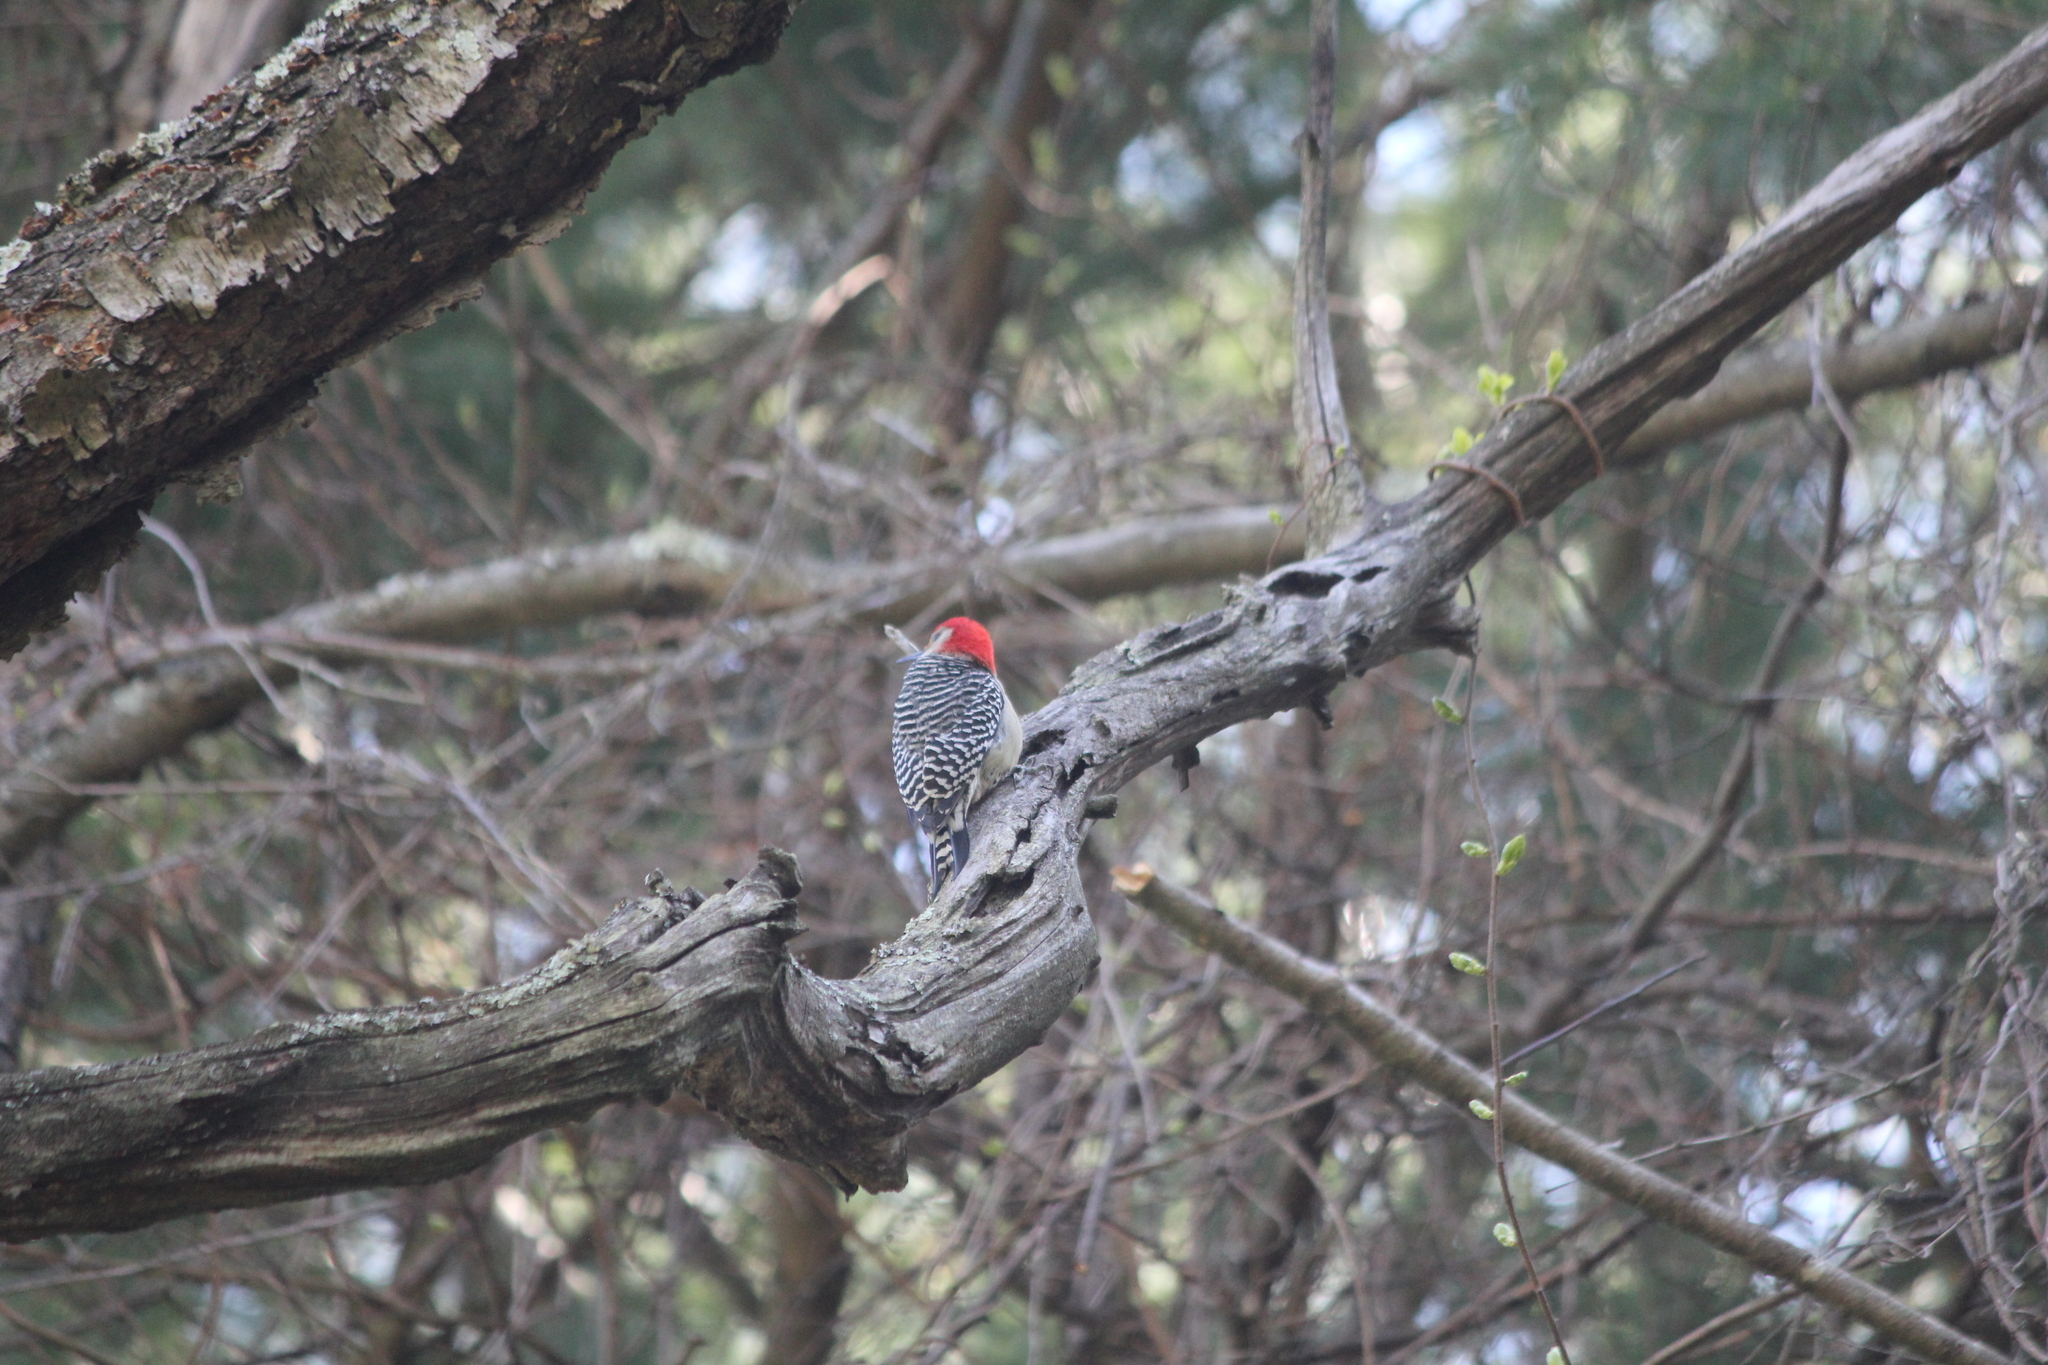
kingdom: Animalia
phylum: Chordata
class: Aves
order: Piciformes
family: Picidae
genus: Melanerpes
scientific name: Melanerpes carolinus
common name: Red-bellied woodpecker
